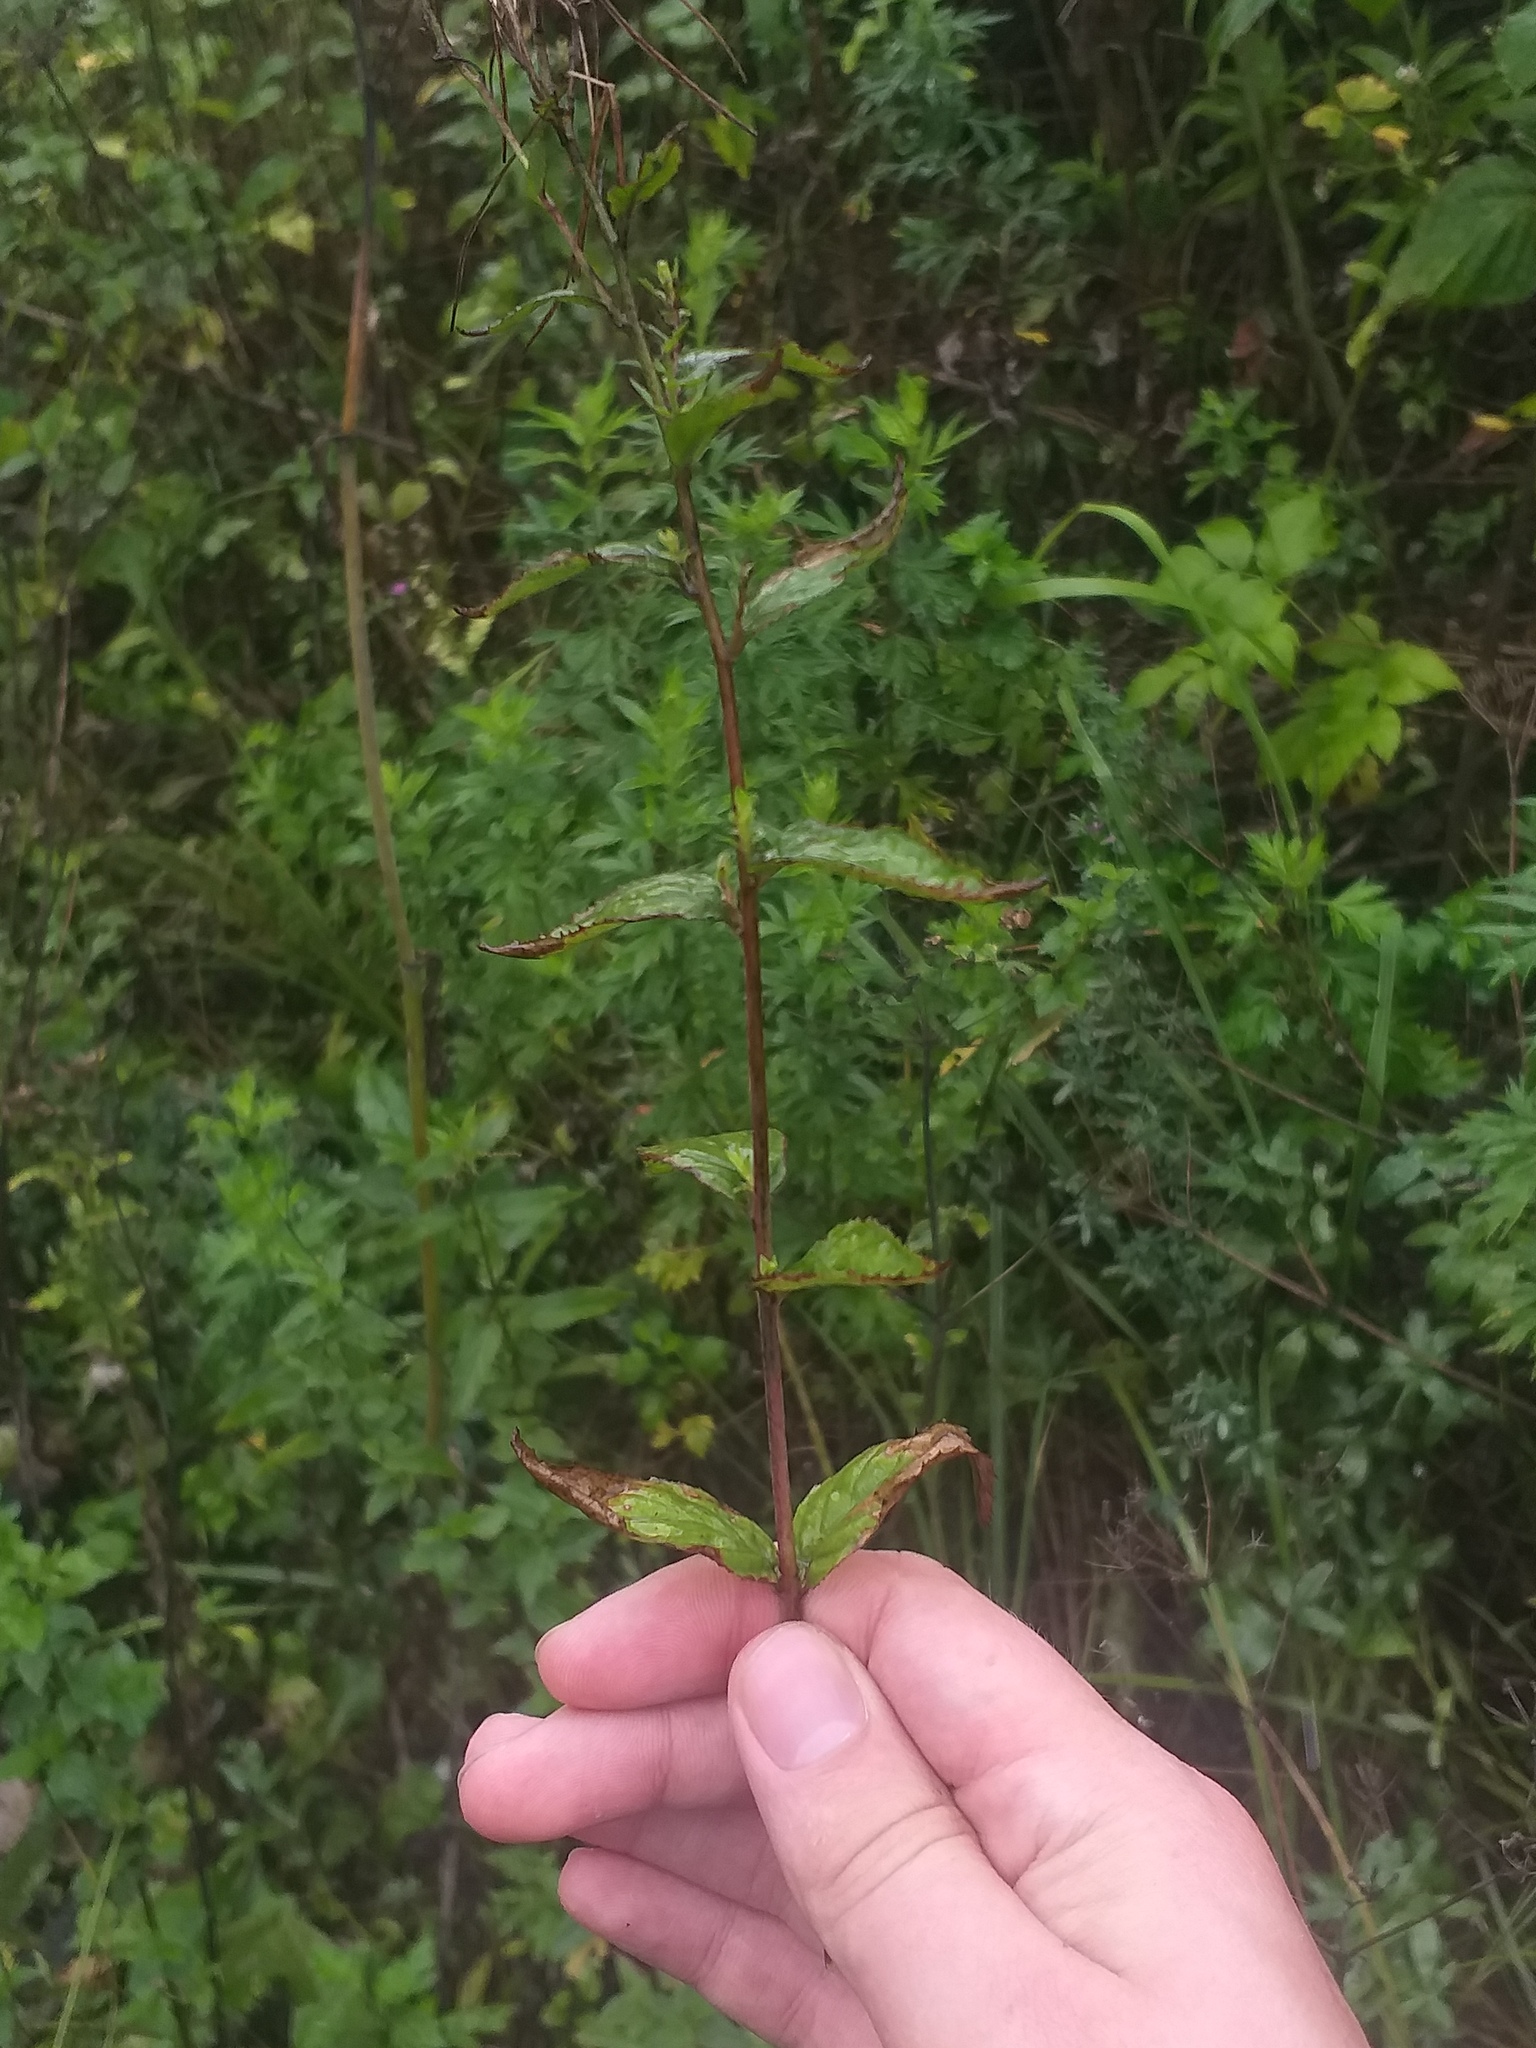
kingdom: Plantae
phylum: Tracheophyta
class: Magnoliopsida
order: Myrtales
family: Onagraceae
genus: Epilobium
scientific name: Epilobium montanum
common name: Broad-leaved willowherb
